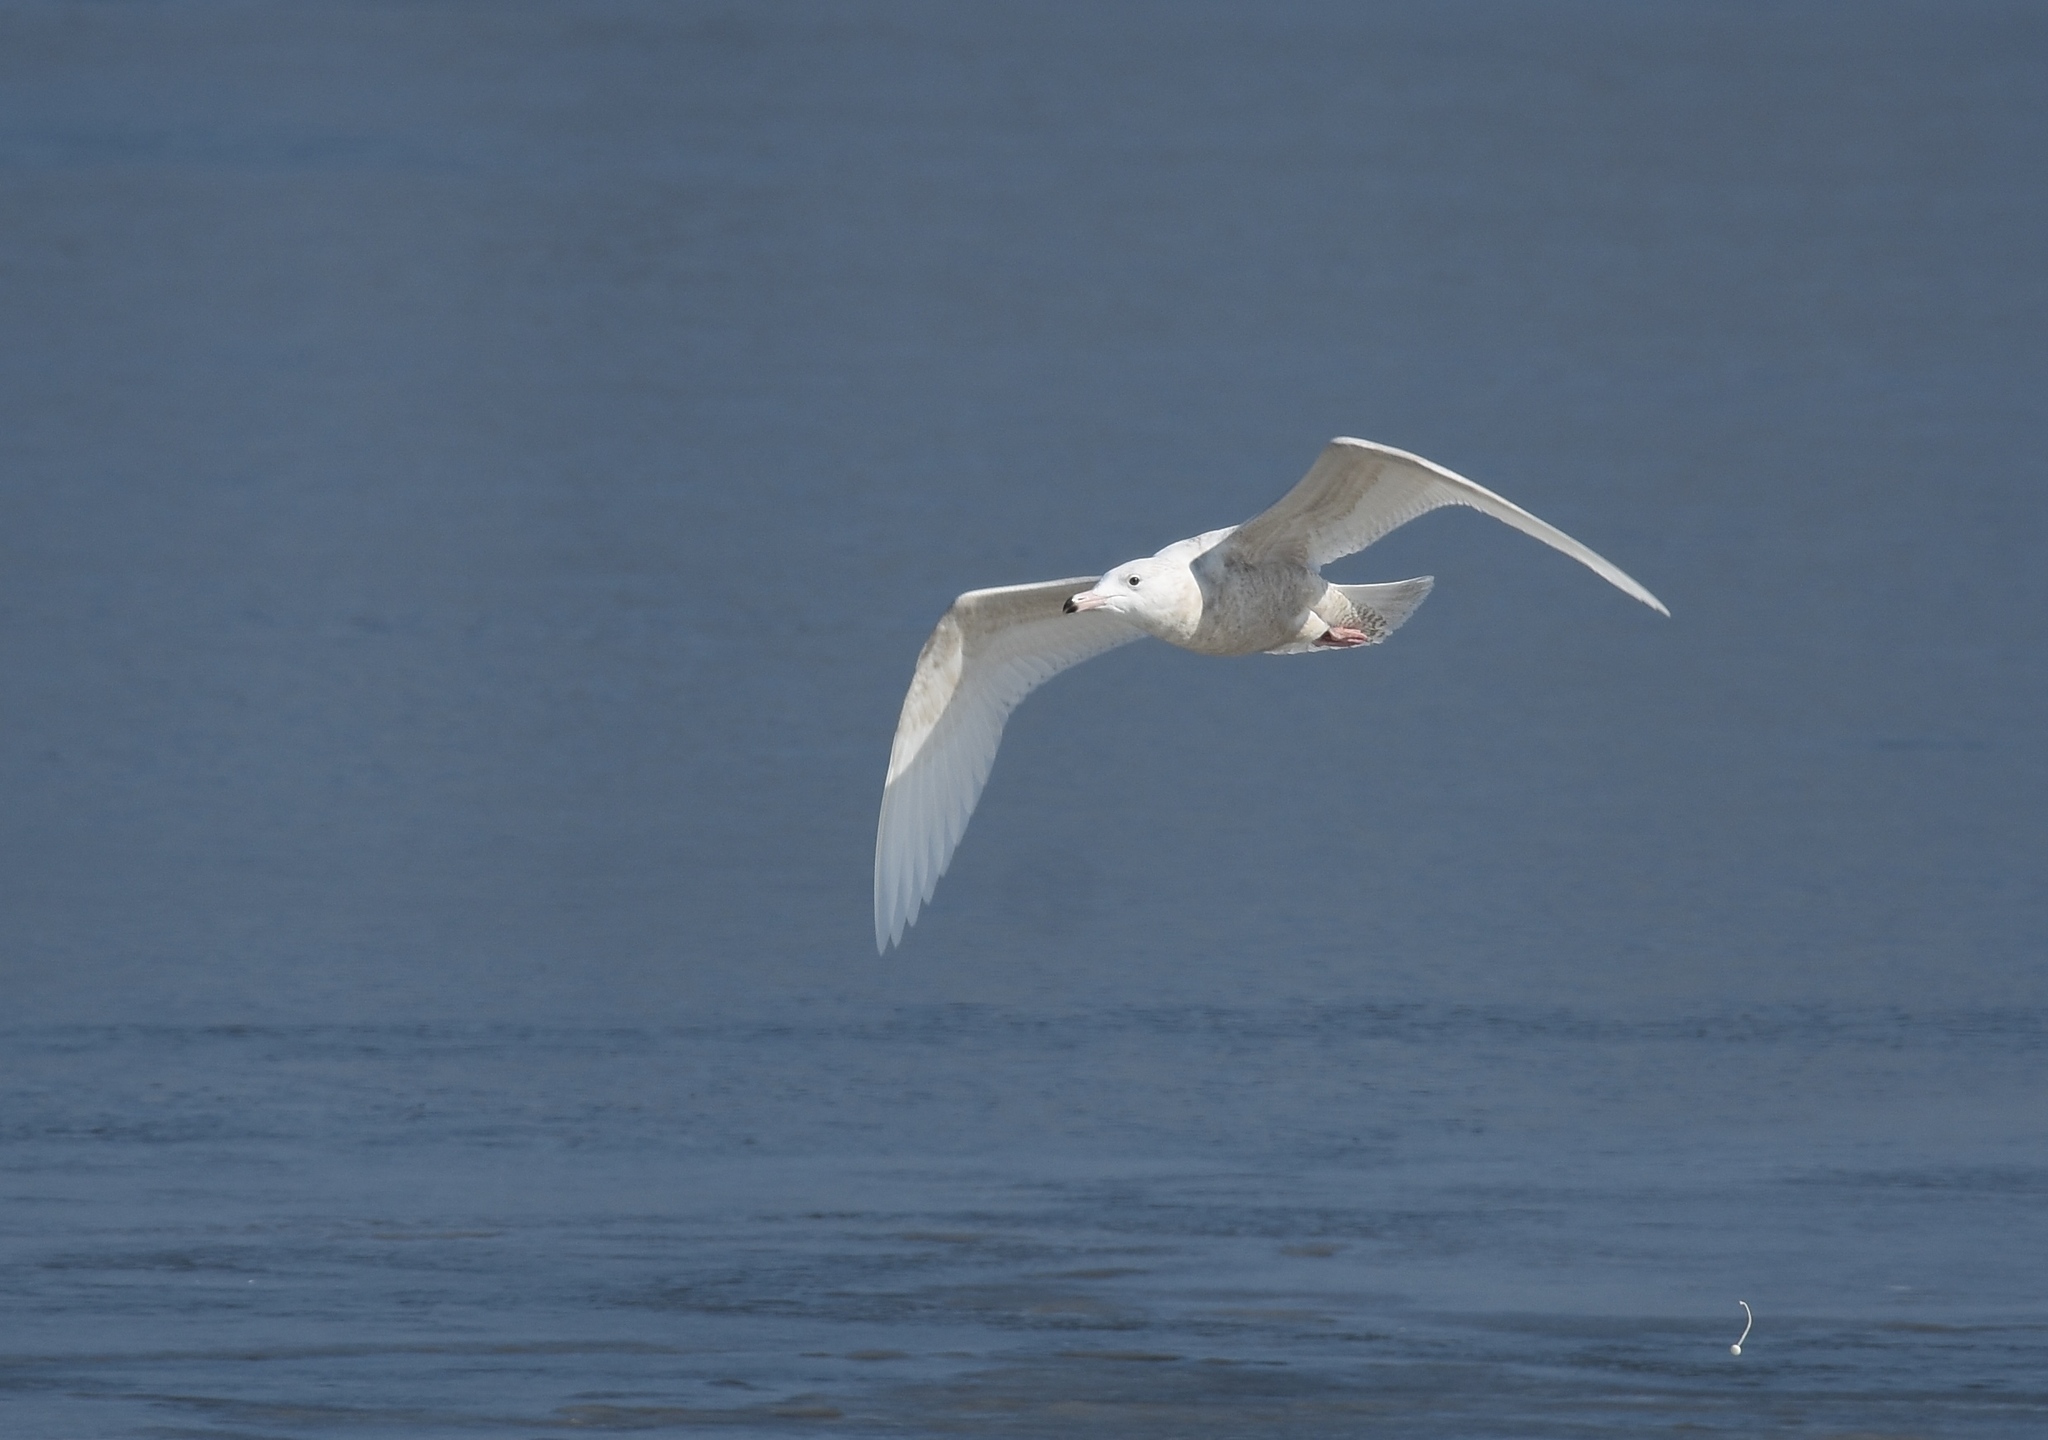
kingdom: Animalia
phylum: Chordata
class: Aves
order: Charadriiformes
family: Laridae
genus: Larus
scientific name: Larus hyperboreus
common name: Glaucous gull
